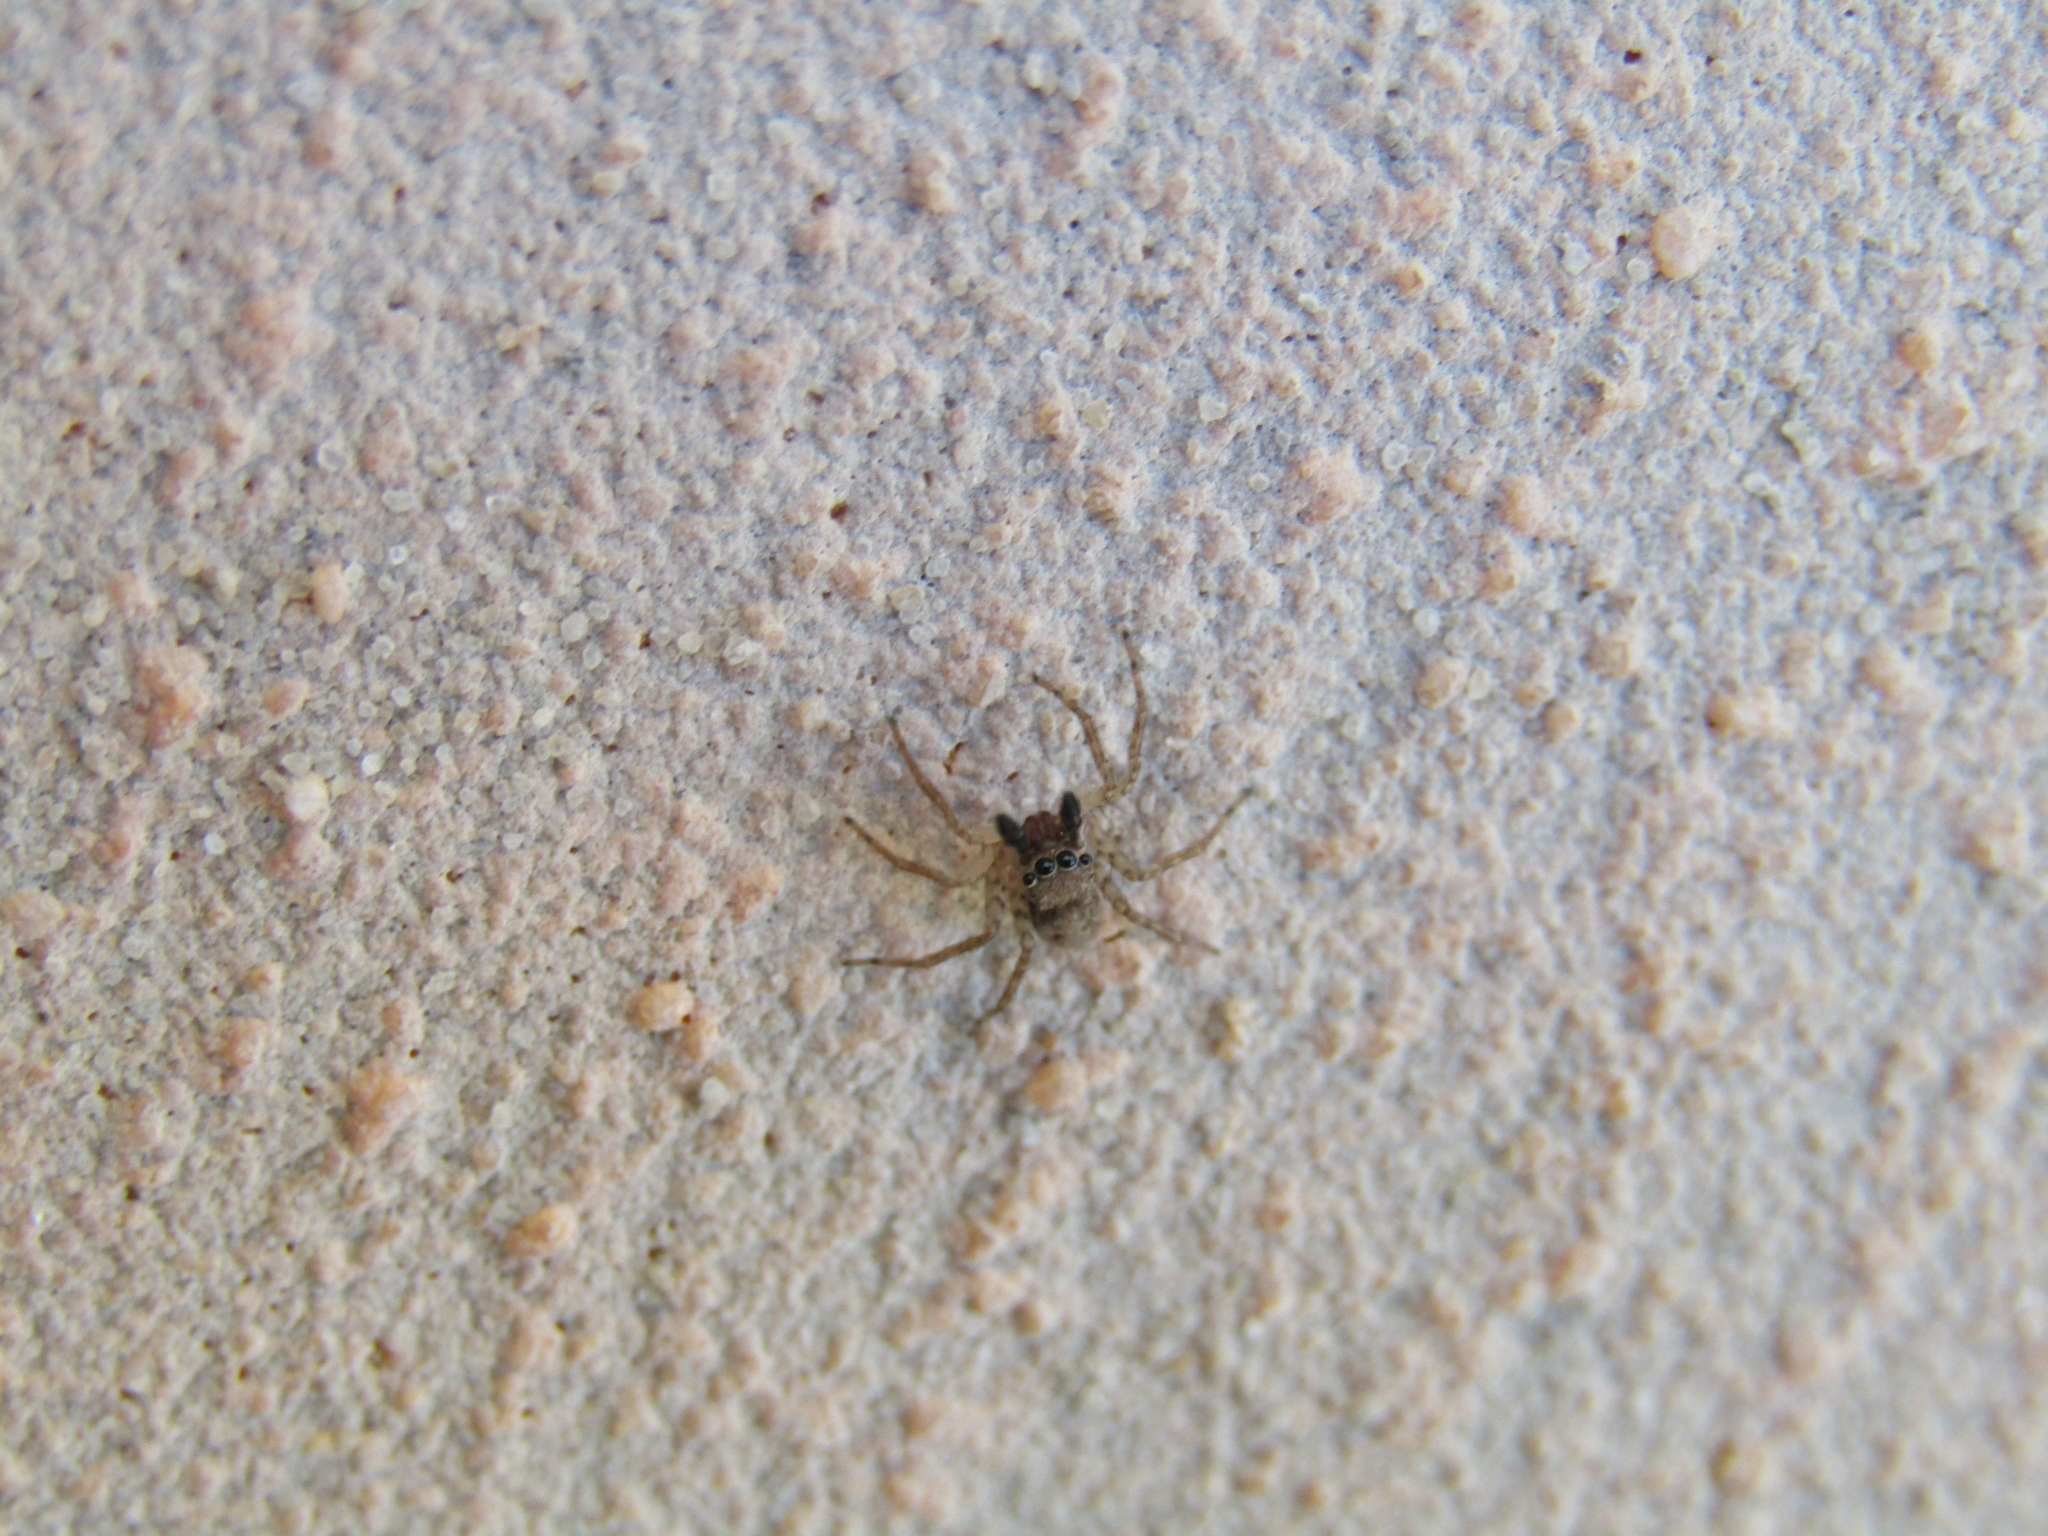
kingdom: Animalia
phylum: Arthropoda
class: Arachnida
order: Araneae
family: Salticidae
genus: Saitis
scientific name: Saitis variegatus
